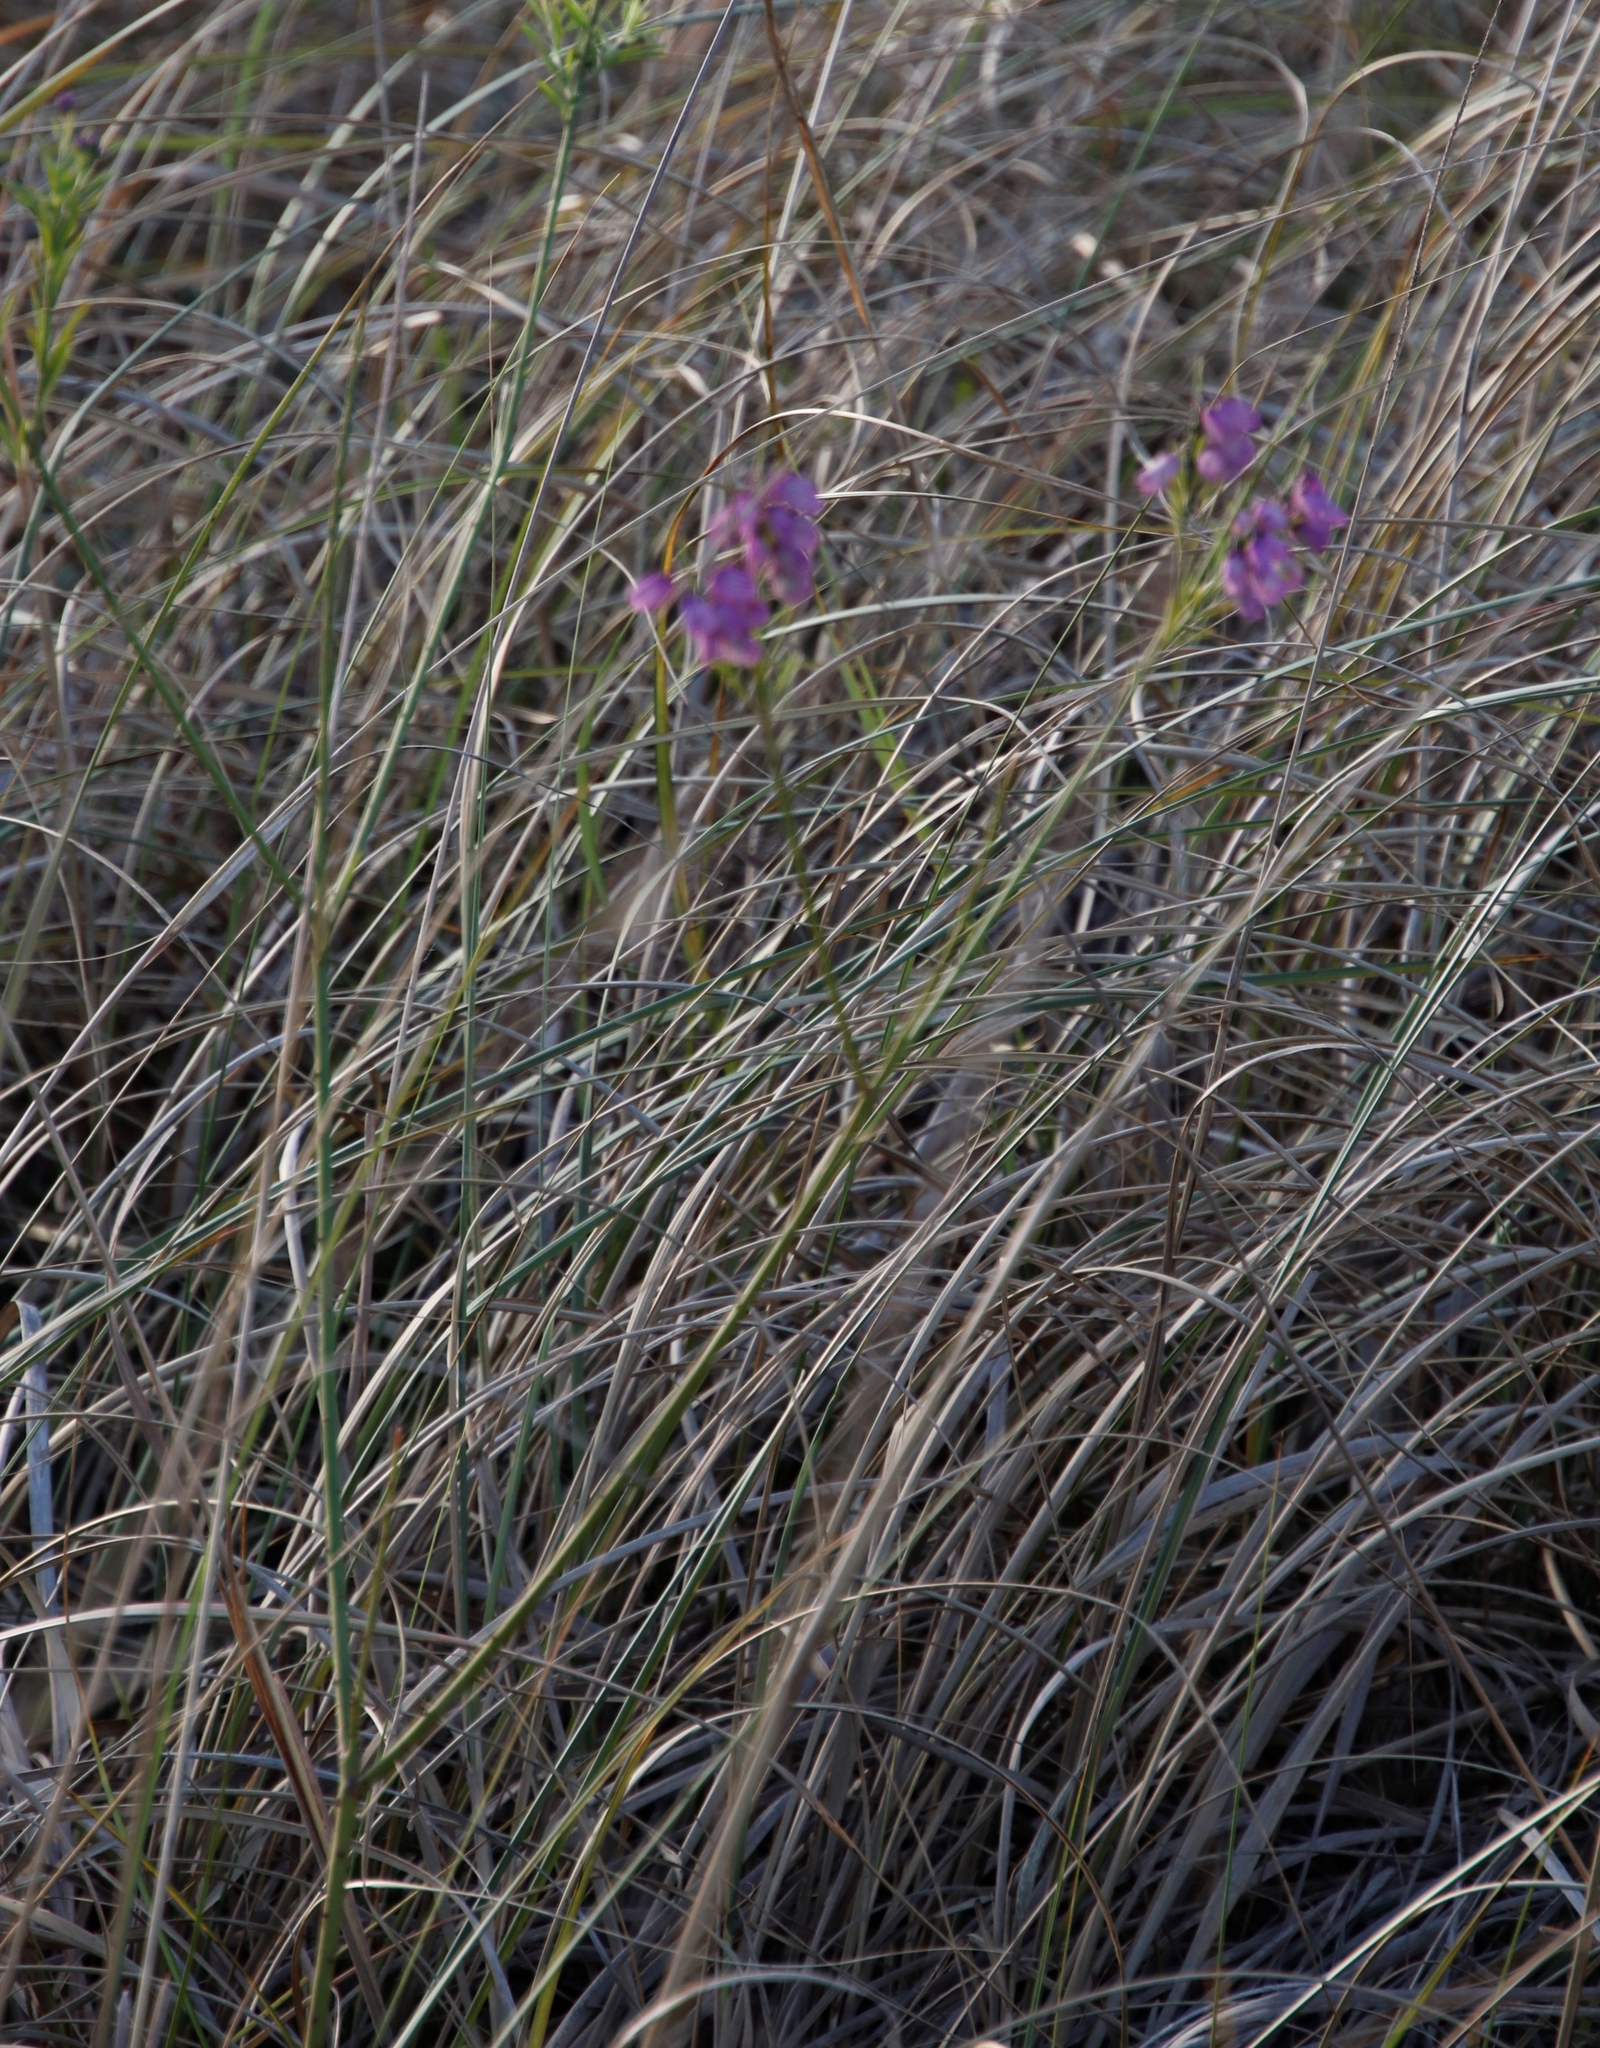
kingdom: Plantae
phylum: Tracheophyta
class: Magnoliopsida
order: Fabales
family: Polygalaceae
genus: Polygala
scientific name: Polygala virgata
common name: Milkwort
